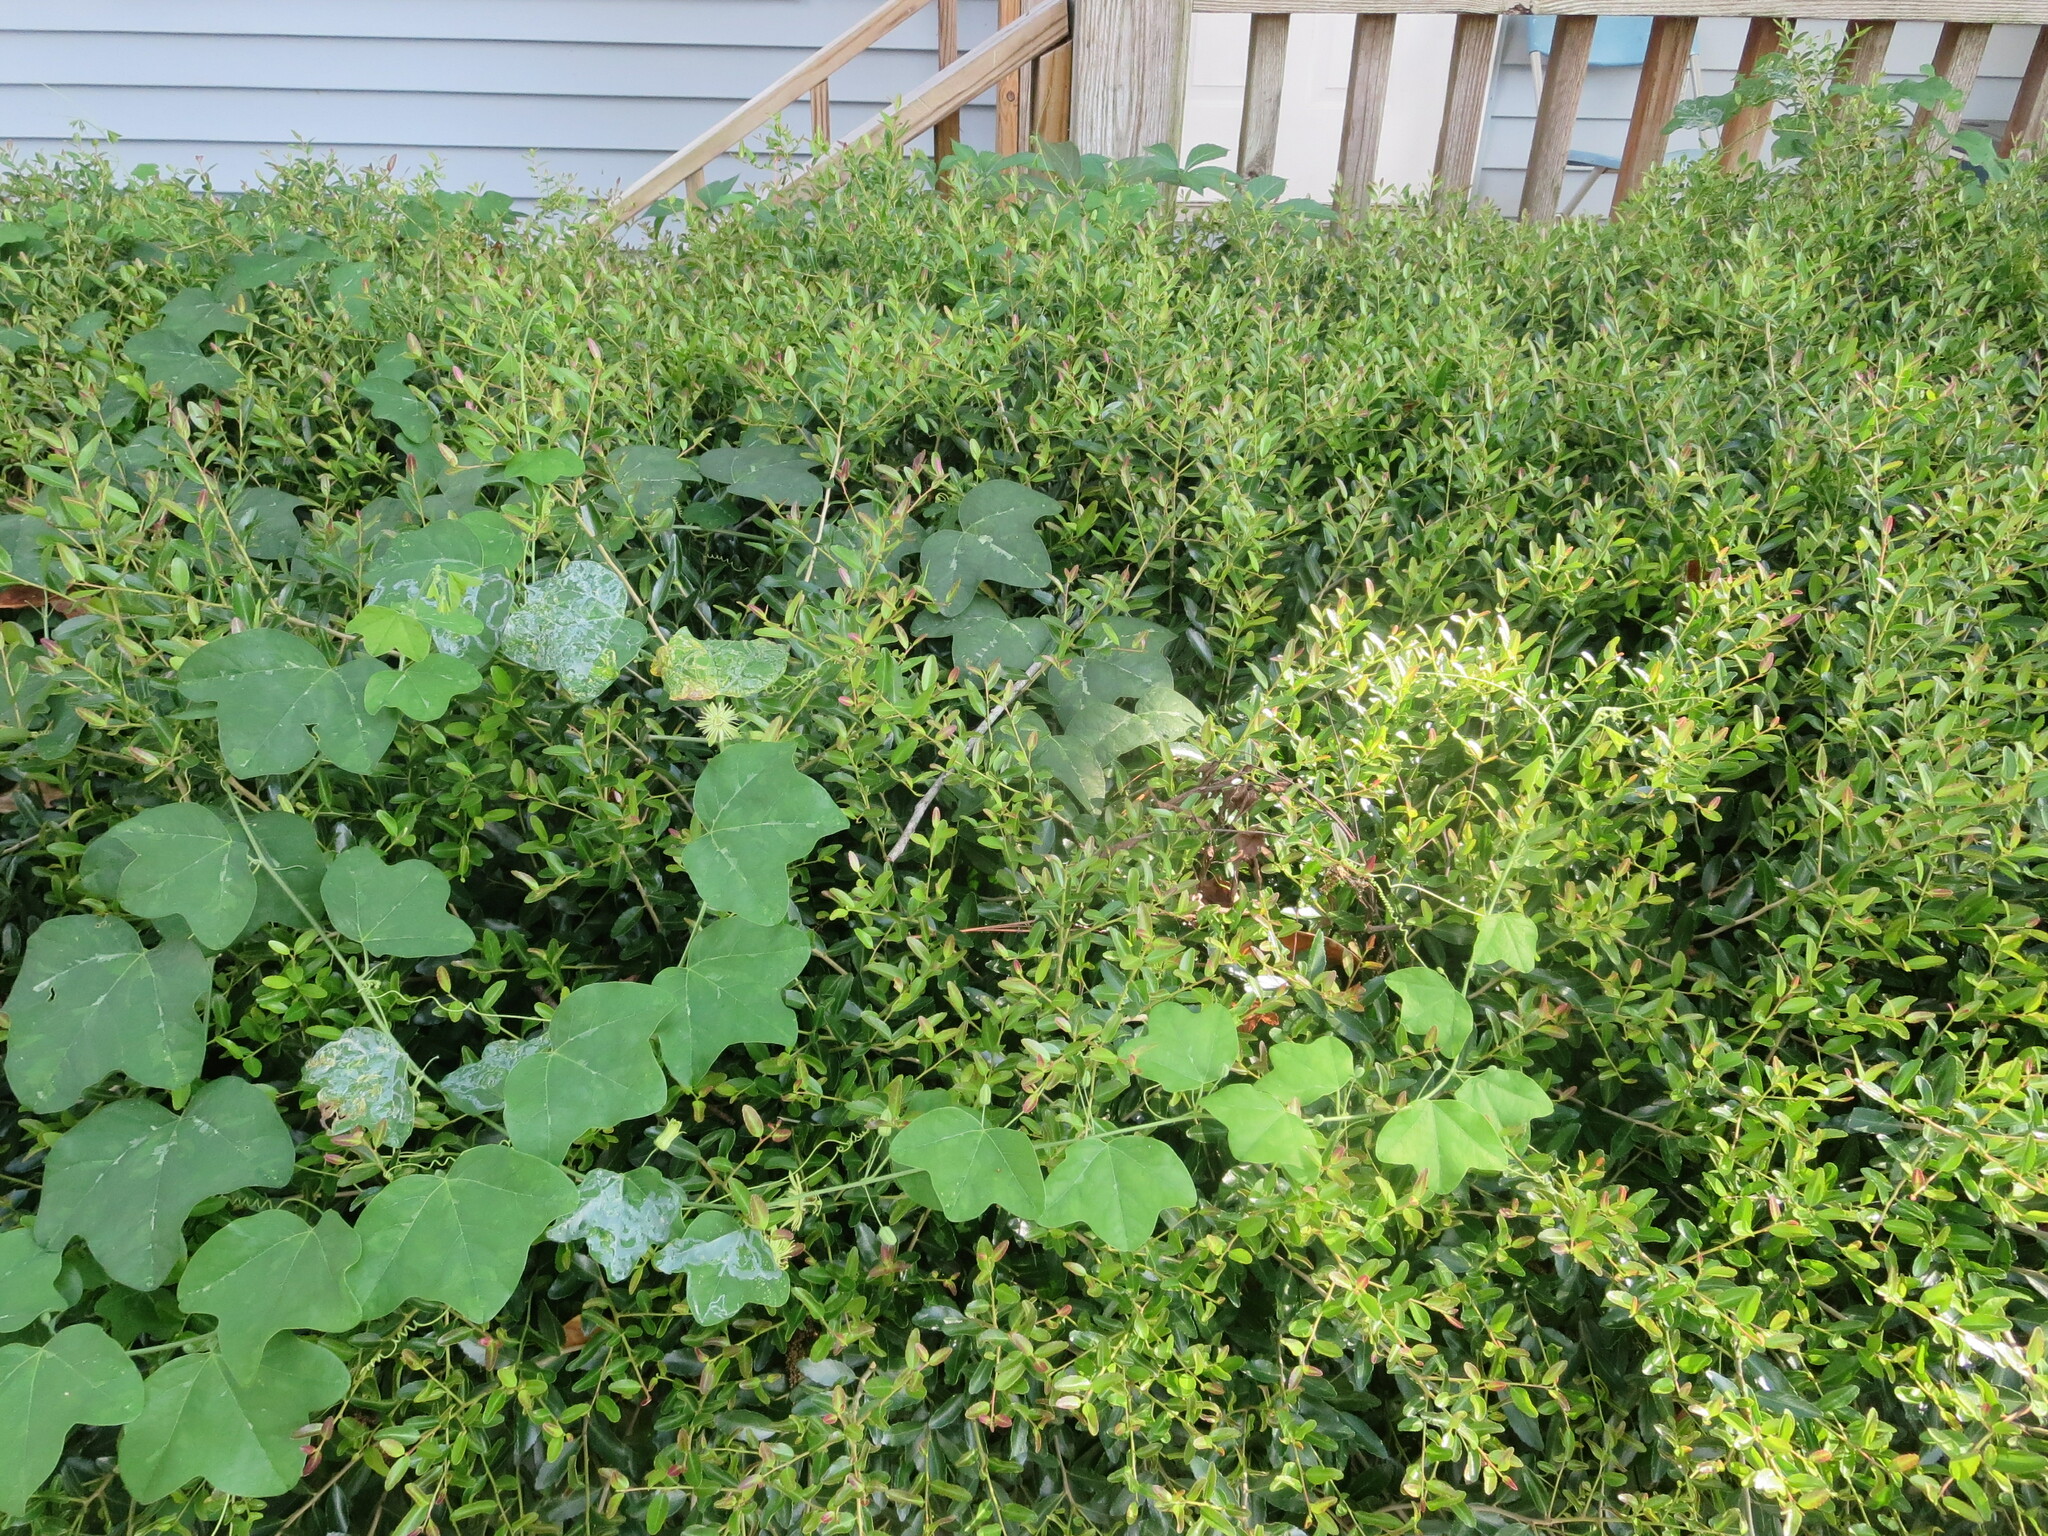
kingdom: Plantae
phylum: Tracheophyta
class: Magnoliopsida
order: Malpighiales
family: Passifloraceae
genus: Passiflora
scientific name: Passiflora lutea
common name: Yellow passionflower
